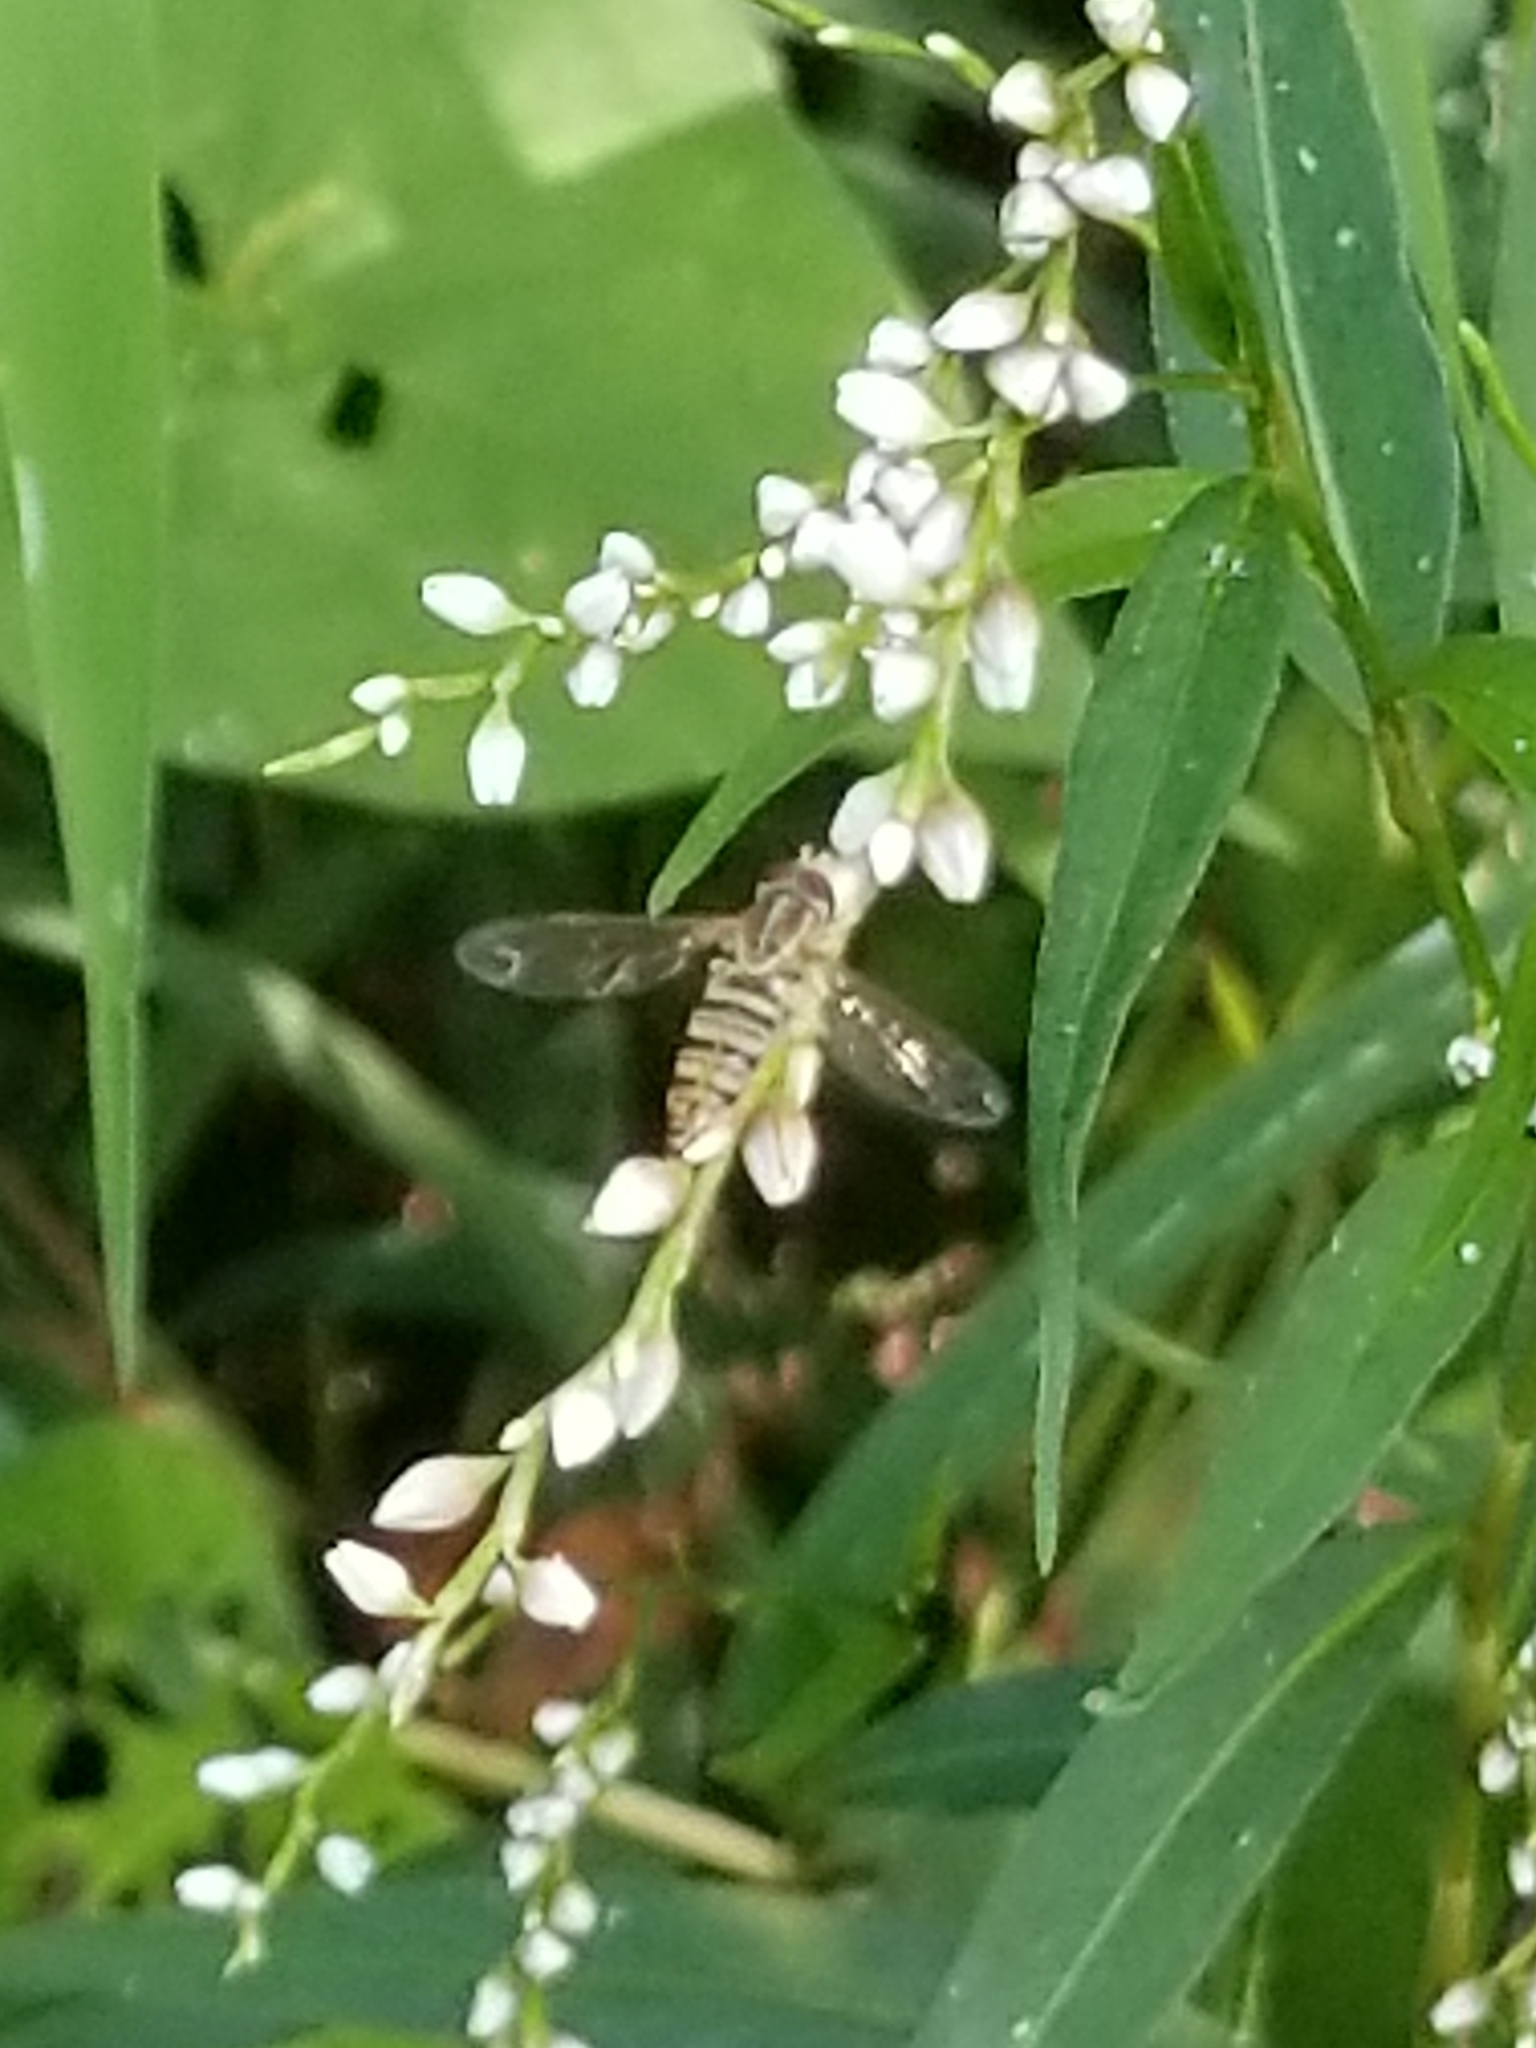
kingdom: Animalia
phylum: Arthropoda
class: Insecta
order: Diptera
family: Syrphidae
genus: Toxomerus
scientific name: Toxomerus politus
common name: Maize calligrapher
